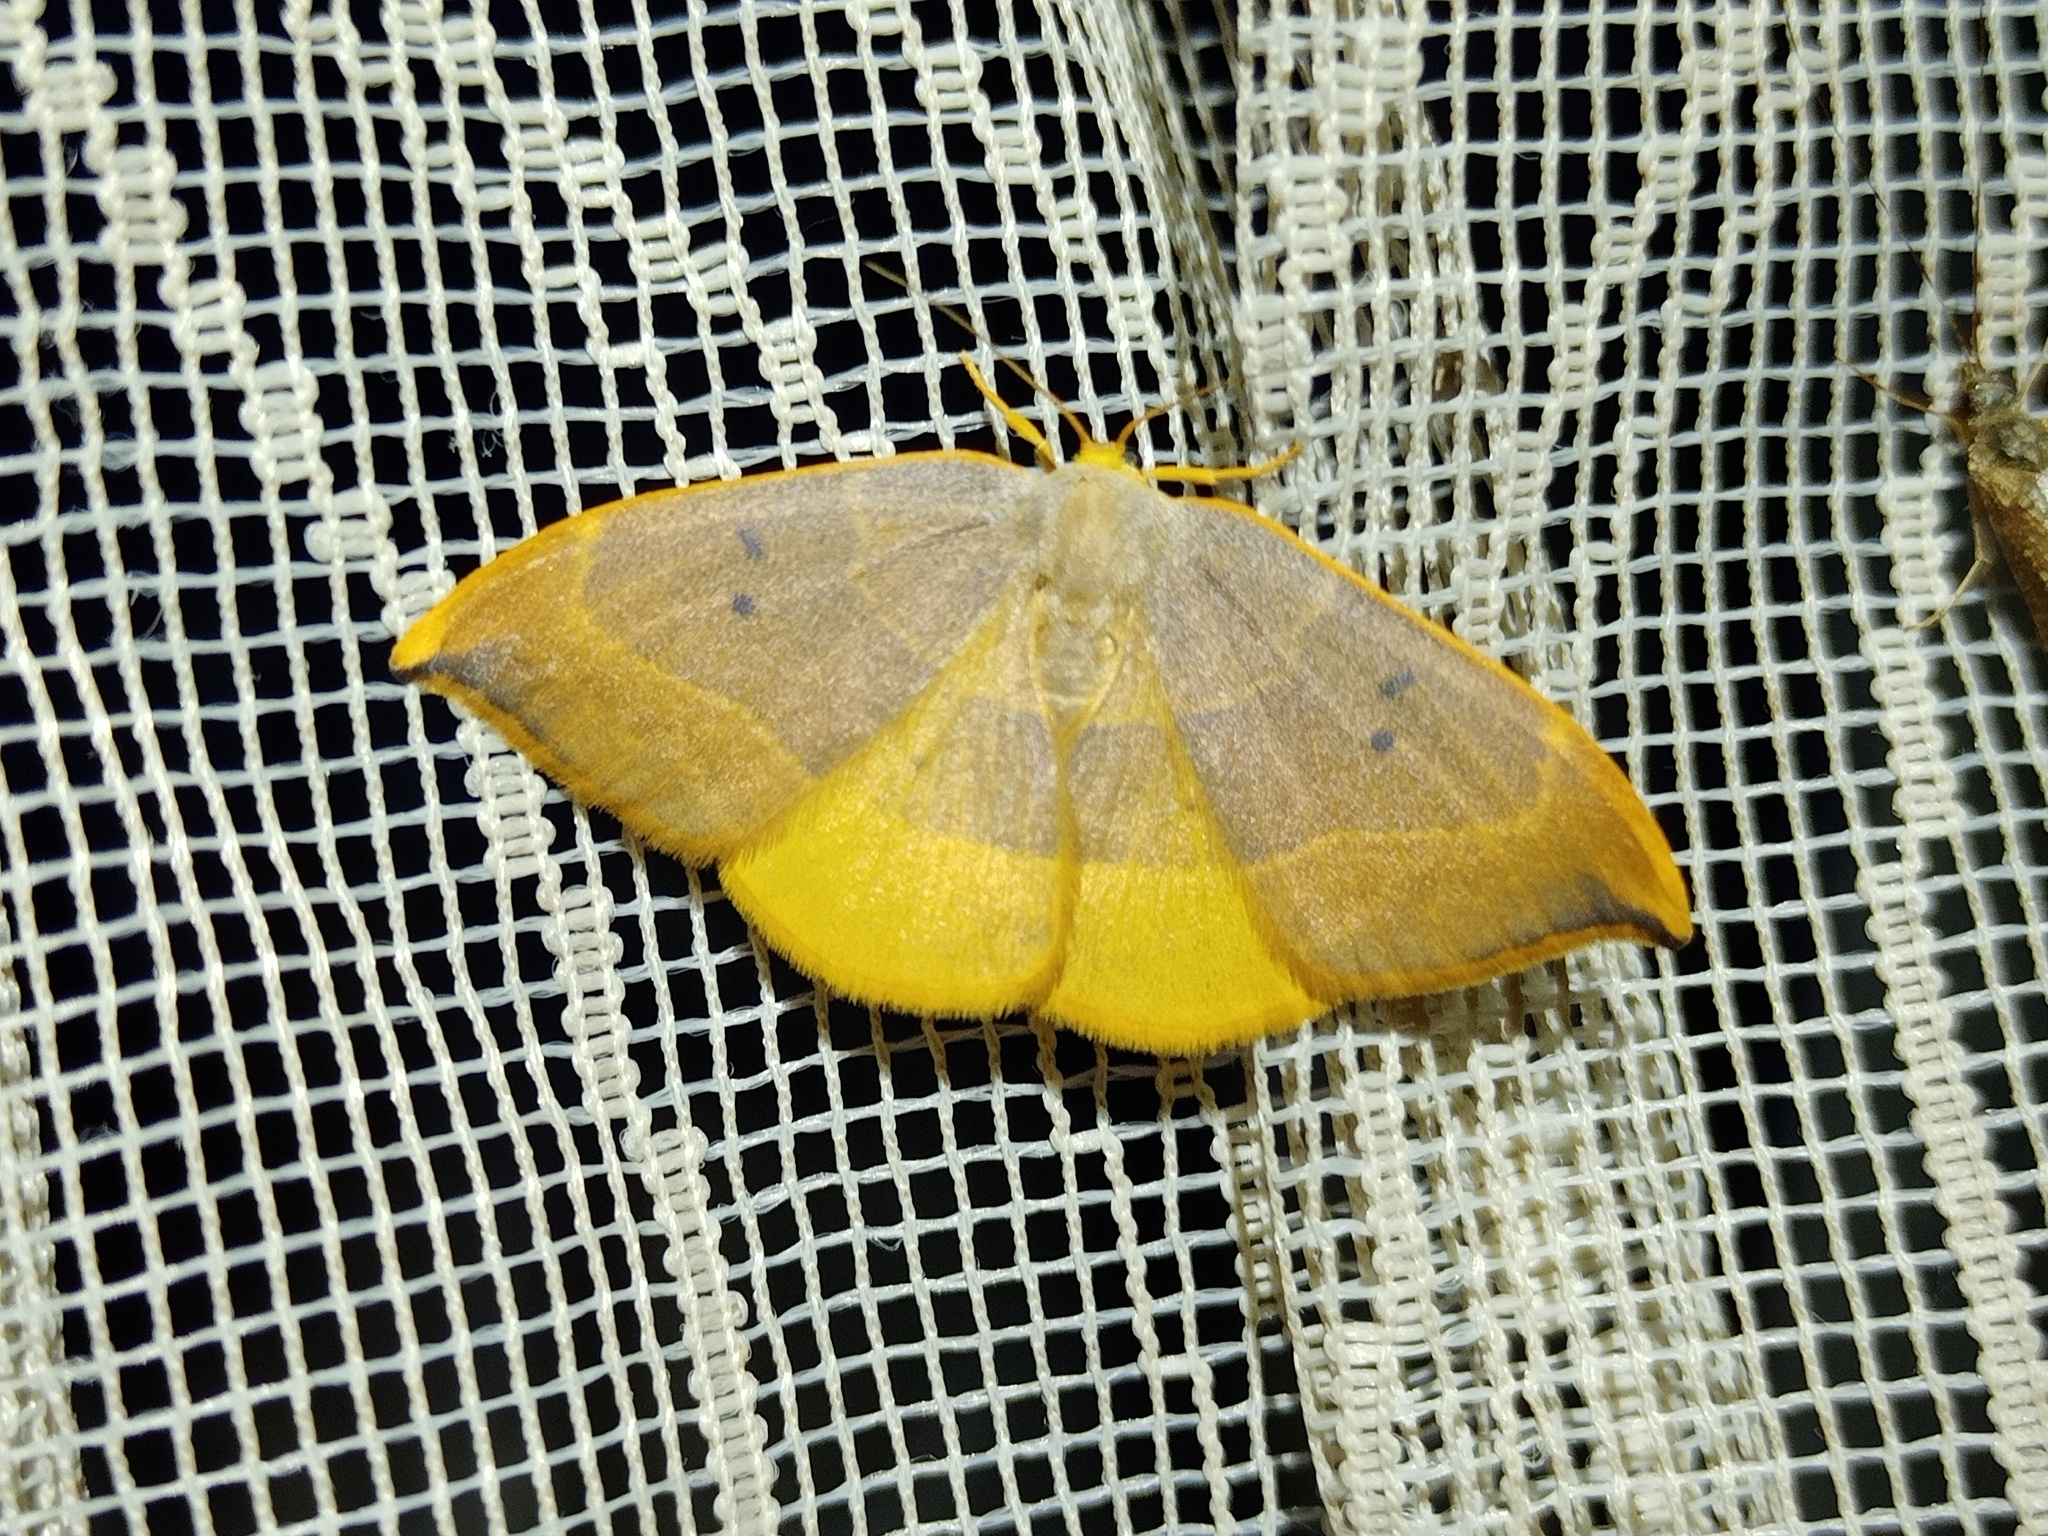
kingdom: Animalia
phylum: Arthropoda
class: Insecta
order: Lepidoptera
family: Drepanidae
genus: Watsonalla
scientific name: Watsonalla binaria
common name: Oak hook-tip
